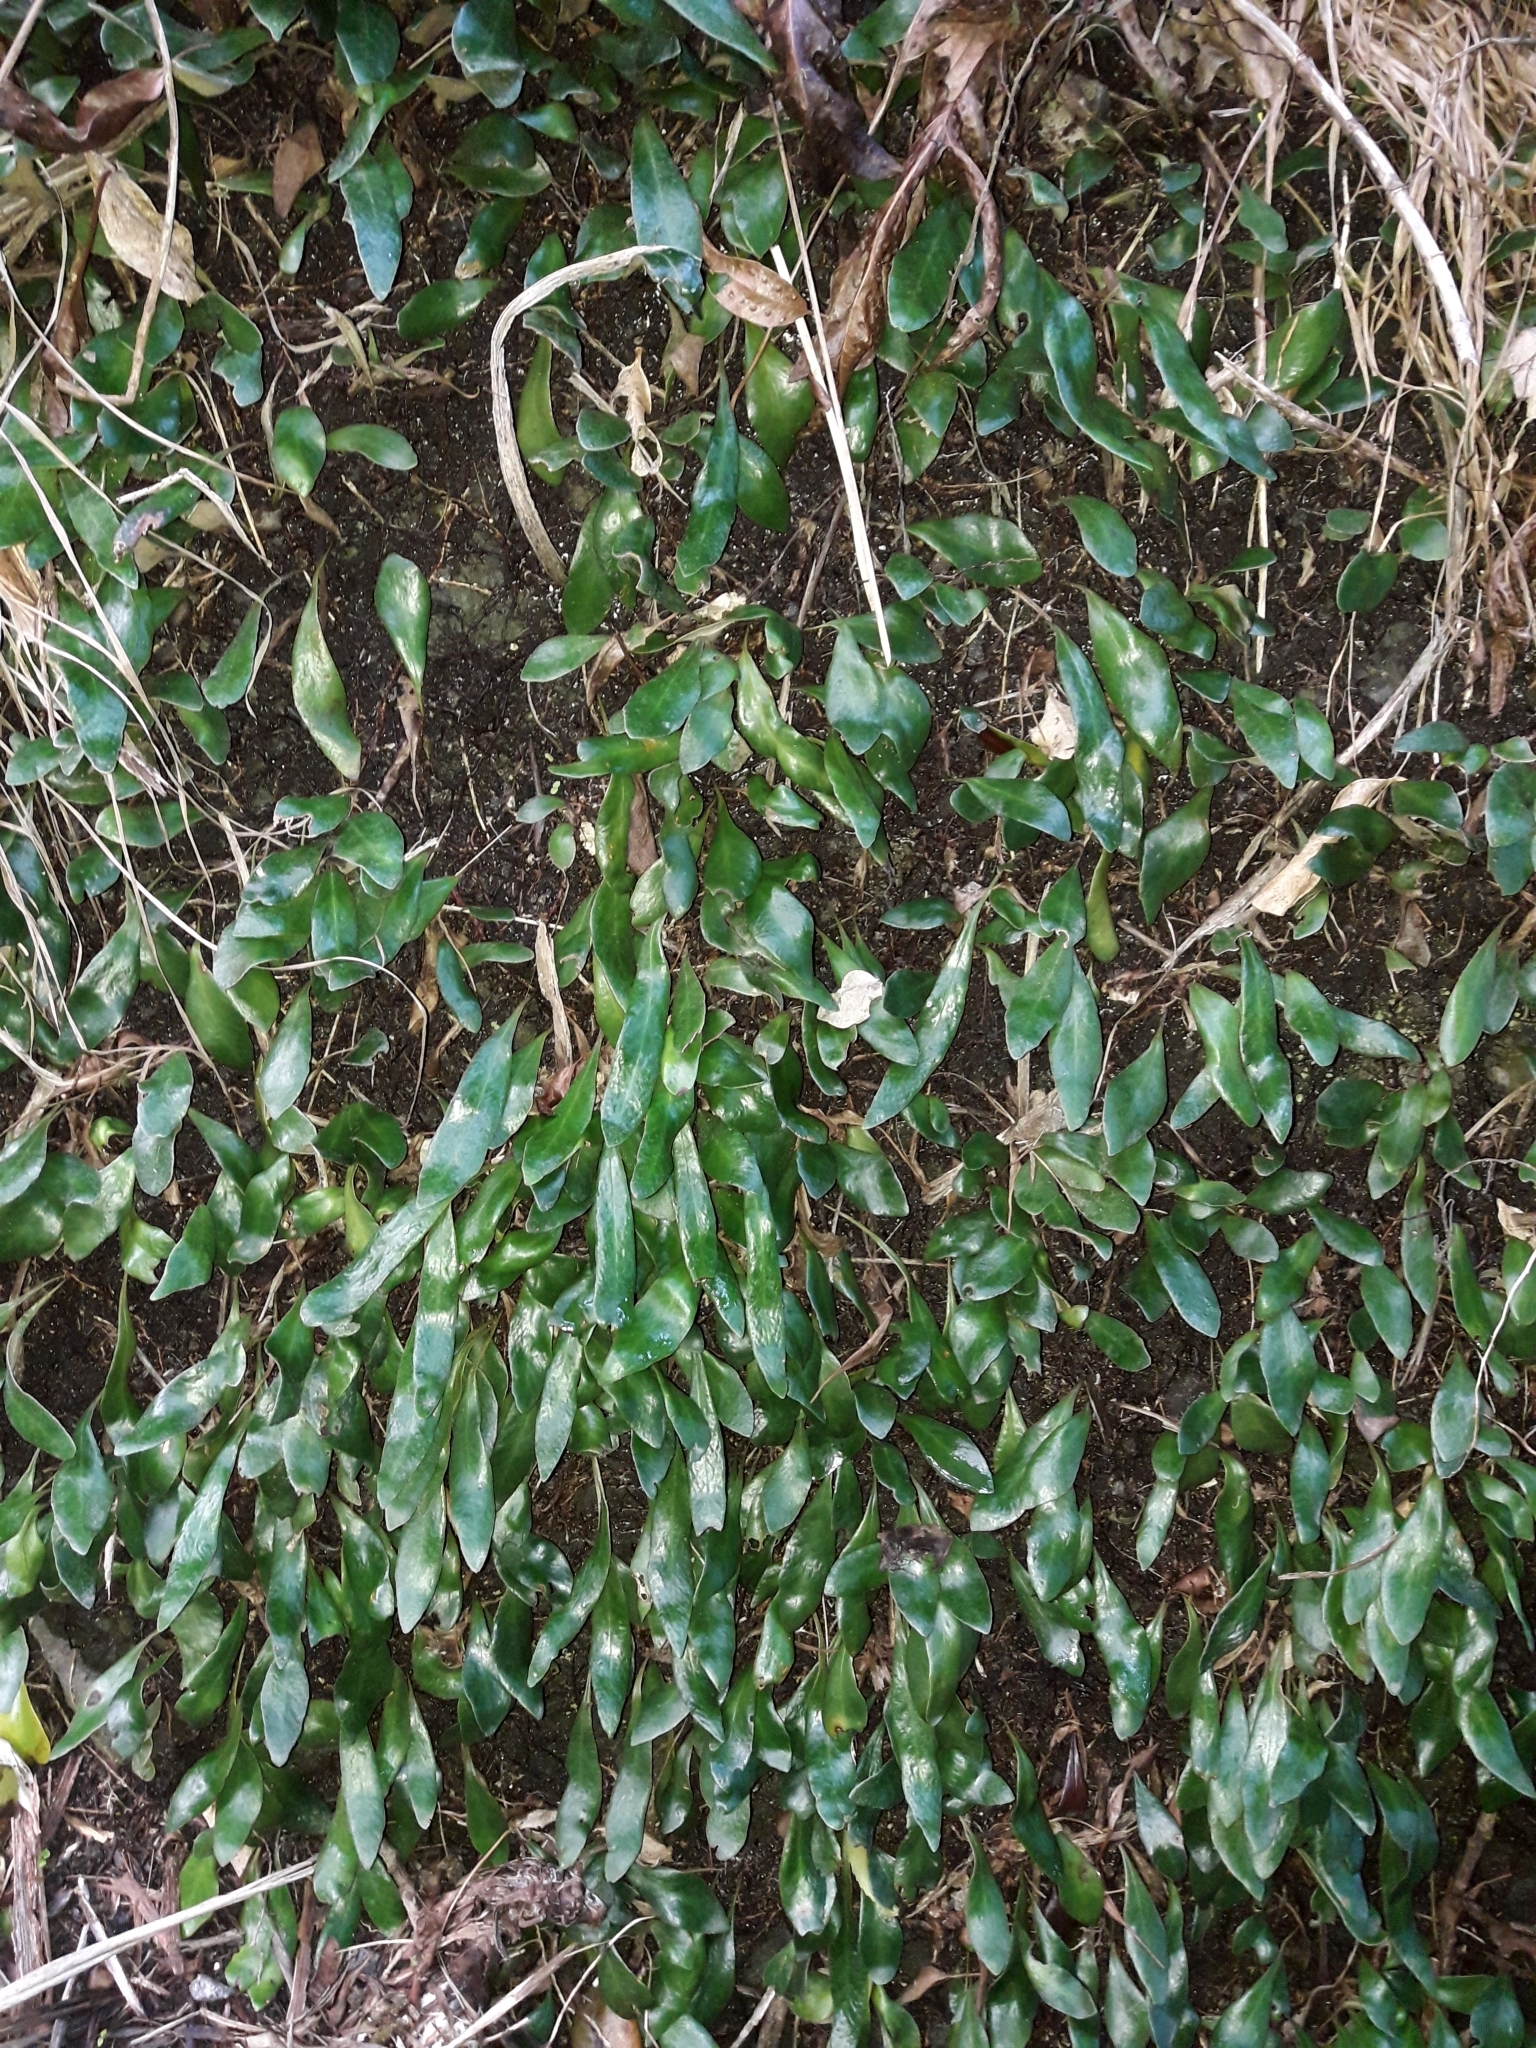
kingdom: Plantae
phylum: Tracheophyta
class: Polypodiopsida
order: Polypodiales
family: Polypodiaceae
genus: Pyrrosia
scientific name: Pyrrosia eleagnifolia
